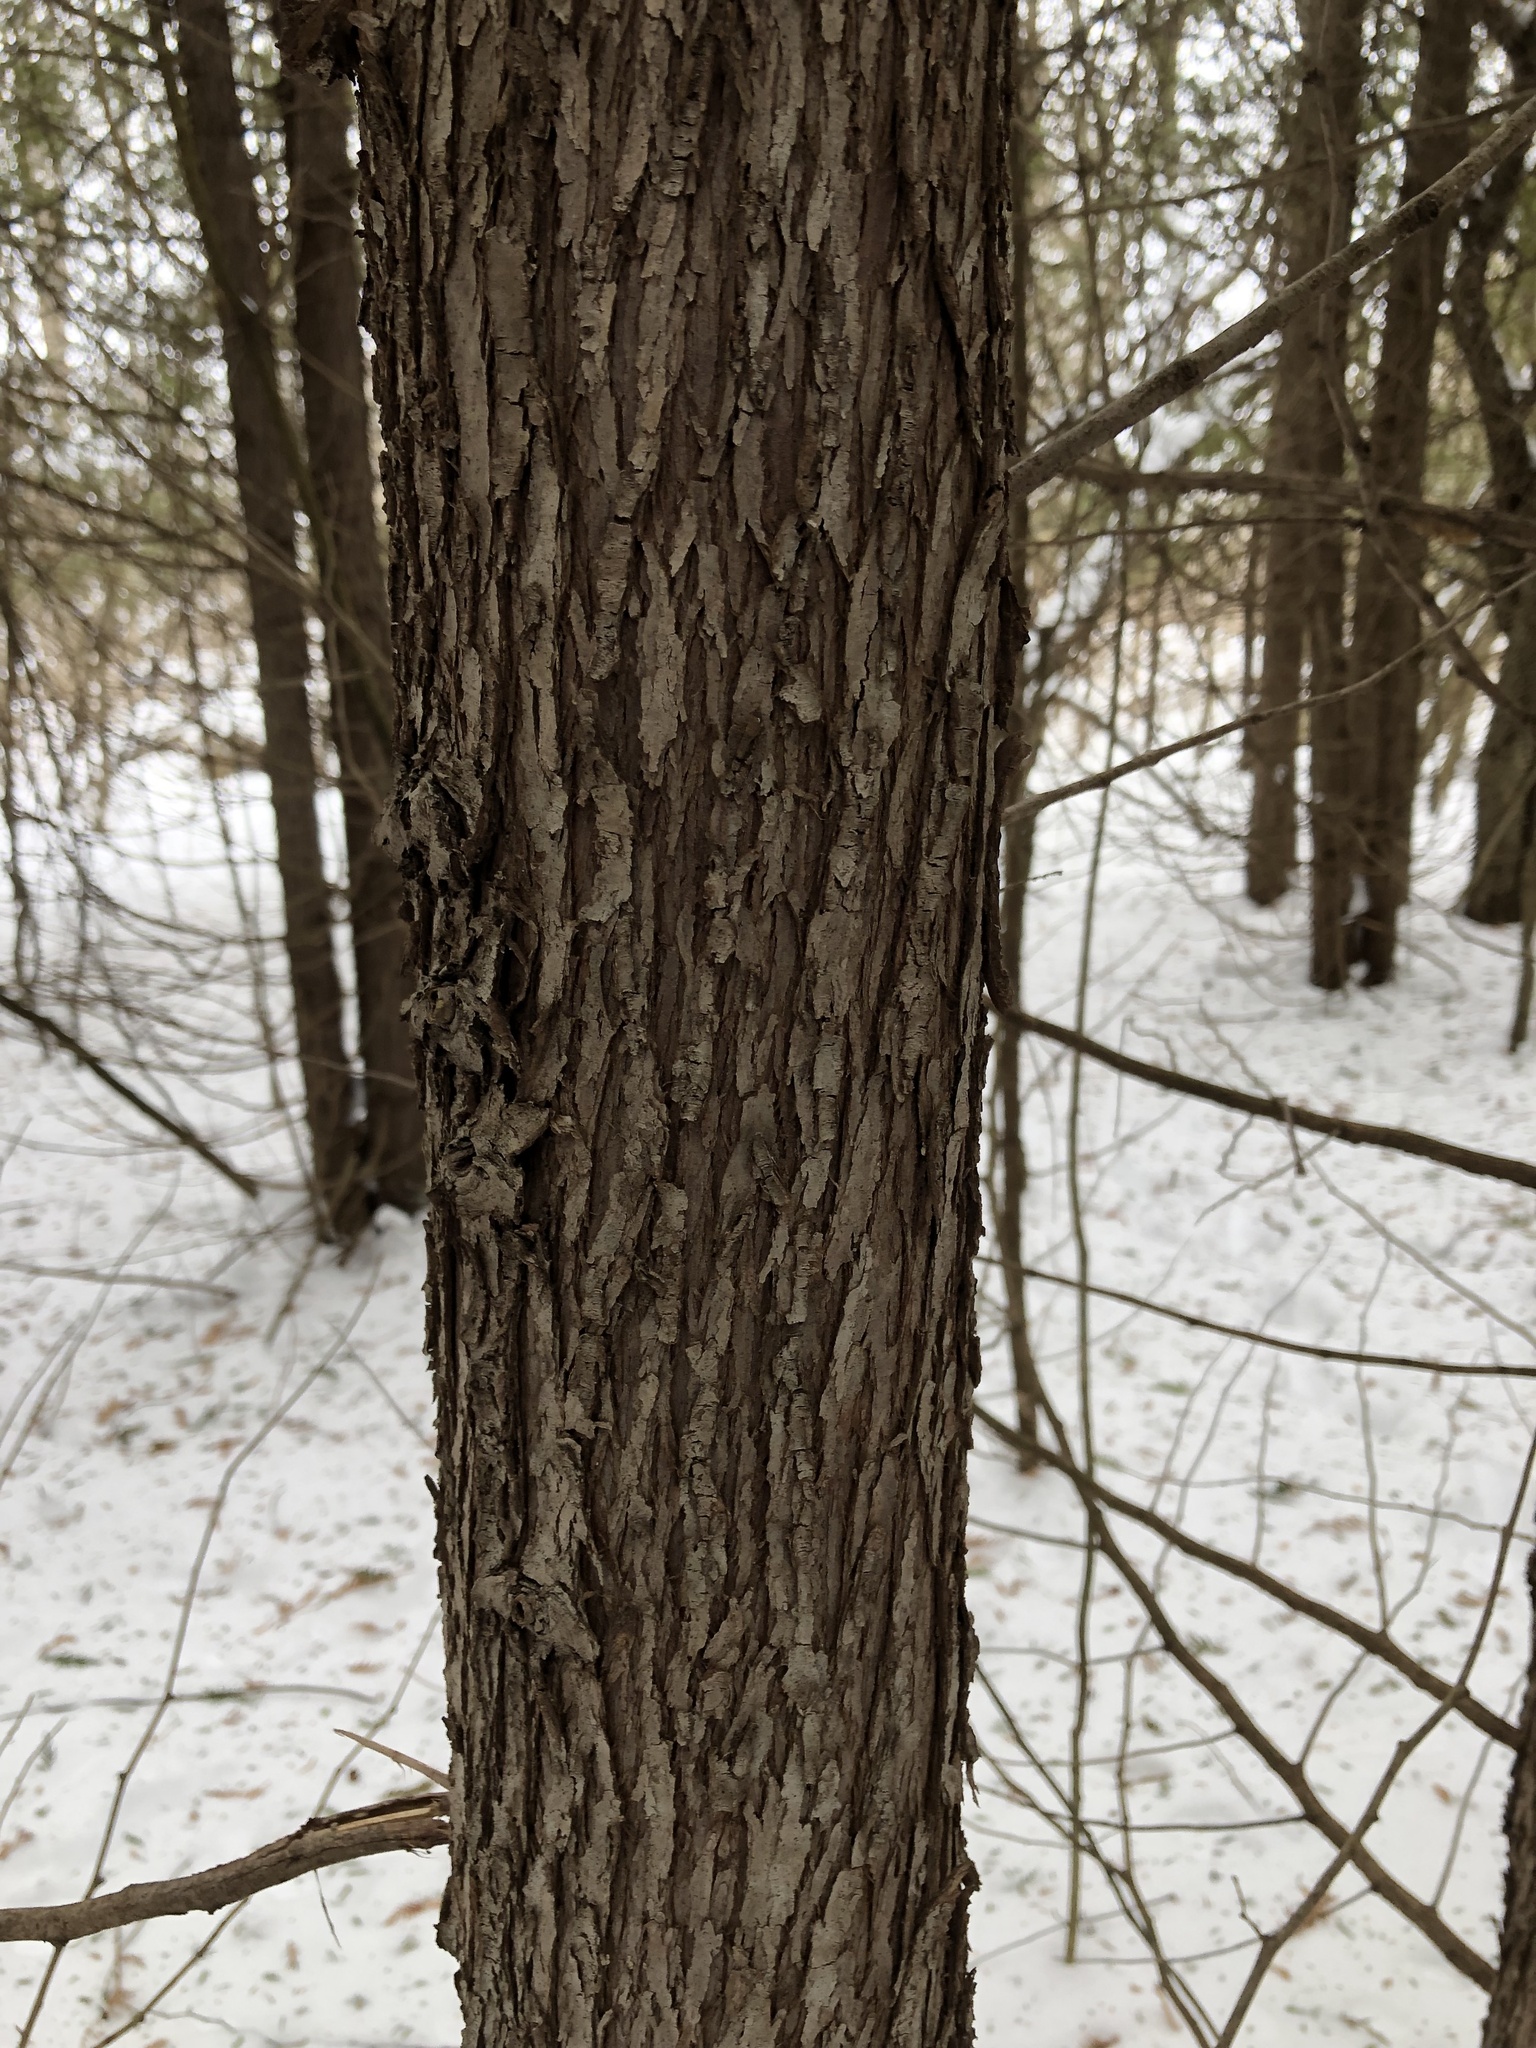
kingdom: Plantae
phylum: Tracheophyta
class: Pinopsida
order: Pinales
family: Pinaceae
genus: Tsuga
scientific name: Tsuga canadensis
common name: Eastern hemlock
